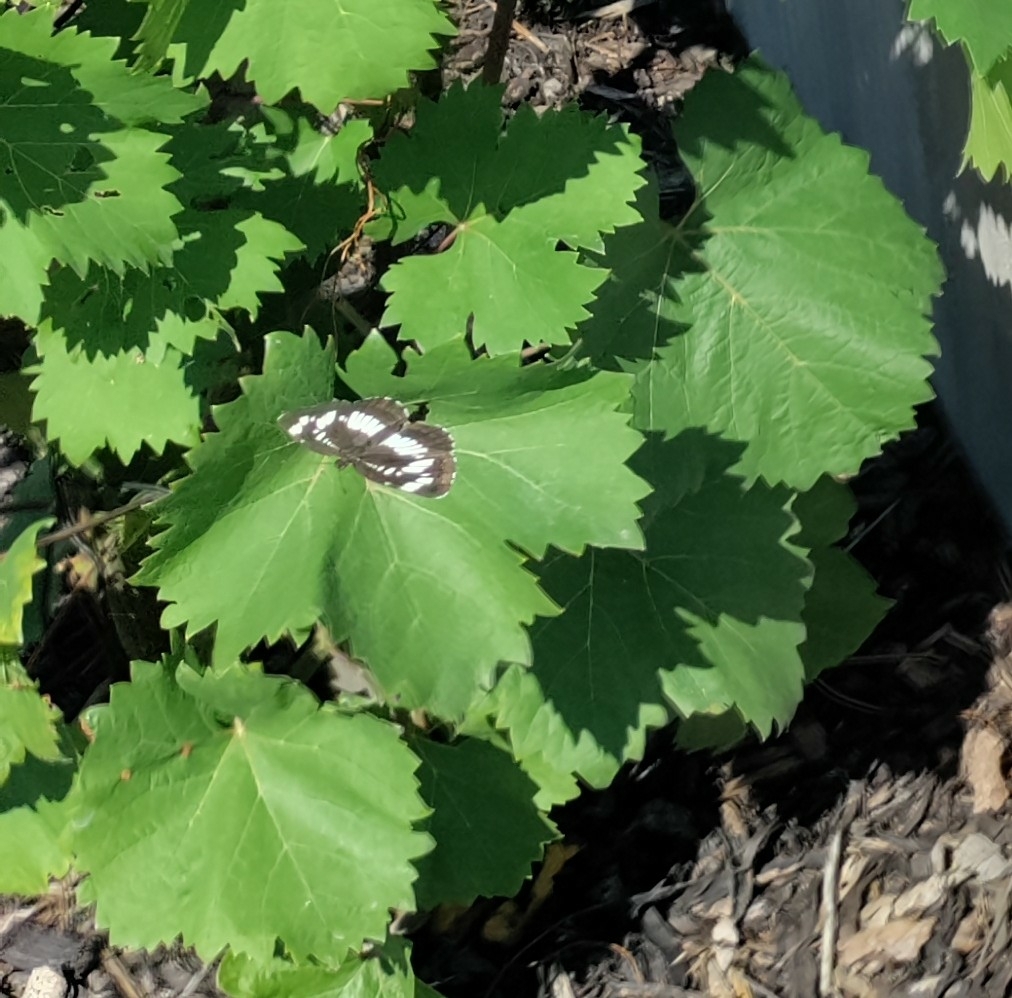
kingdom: Animalia
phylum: Arthropoda
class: Insecta
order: Lepidoptera
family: Nymphalidae
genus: Neptis
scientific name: Neptis rivularis
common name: Hungarian glider
